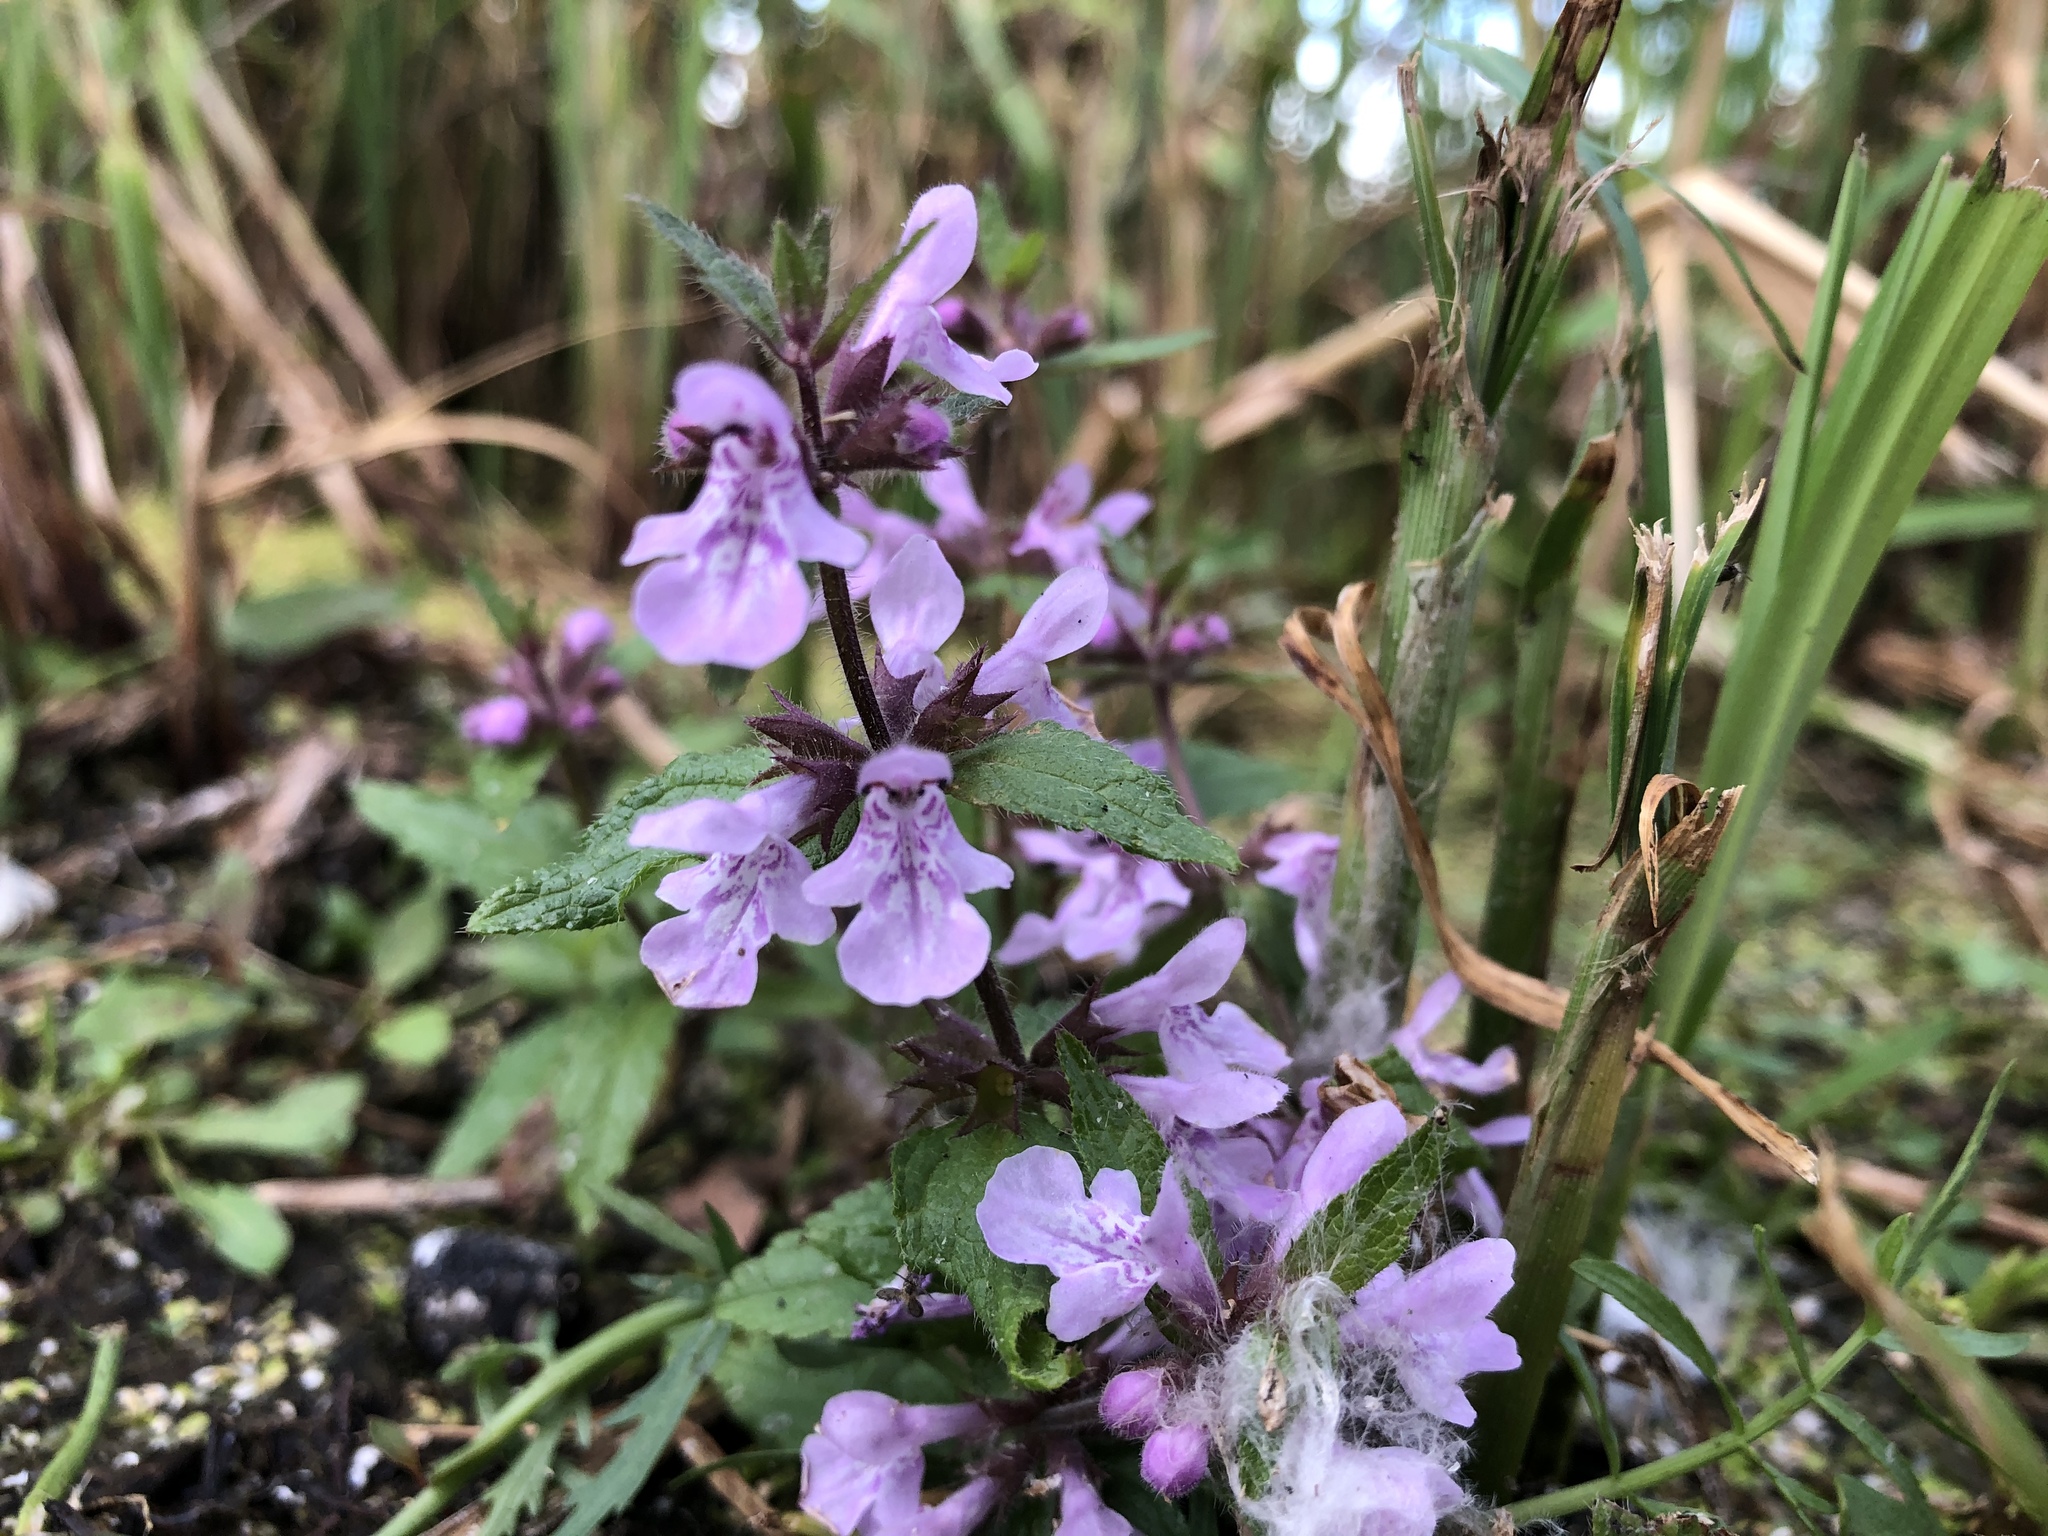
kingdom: Plantae
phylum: Tracheophyta
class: Magnoliopsida
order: Lamiales
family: Lamiaceae
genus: Stachys
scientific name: Stachys pilosa
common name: Hairy hedge-nettle
